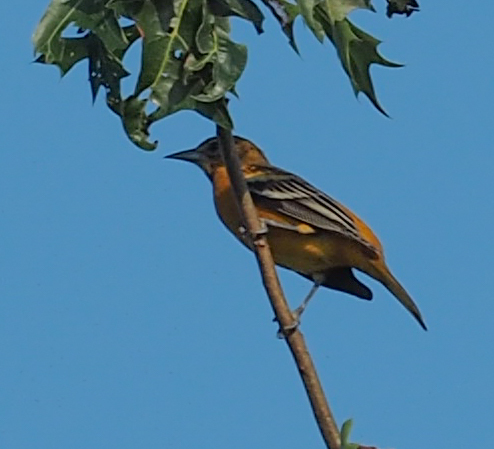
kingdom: Animalia
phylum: Chordata
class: Aves
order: Passeriformes
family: Icteridae
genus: Icterus
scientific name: Icterus galbula
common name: Baltimore oriole
